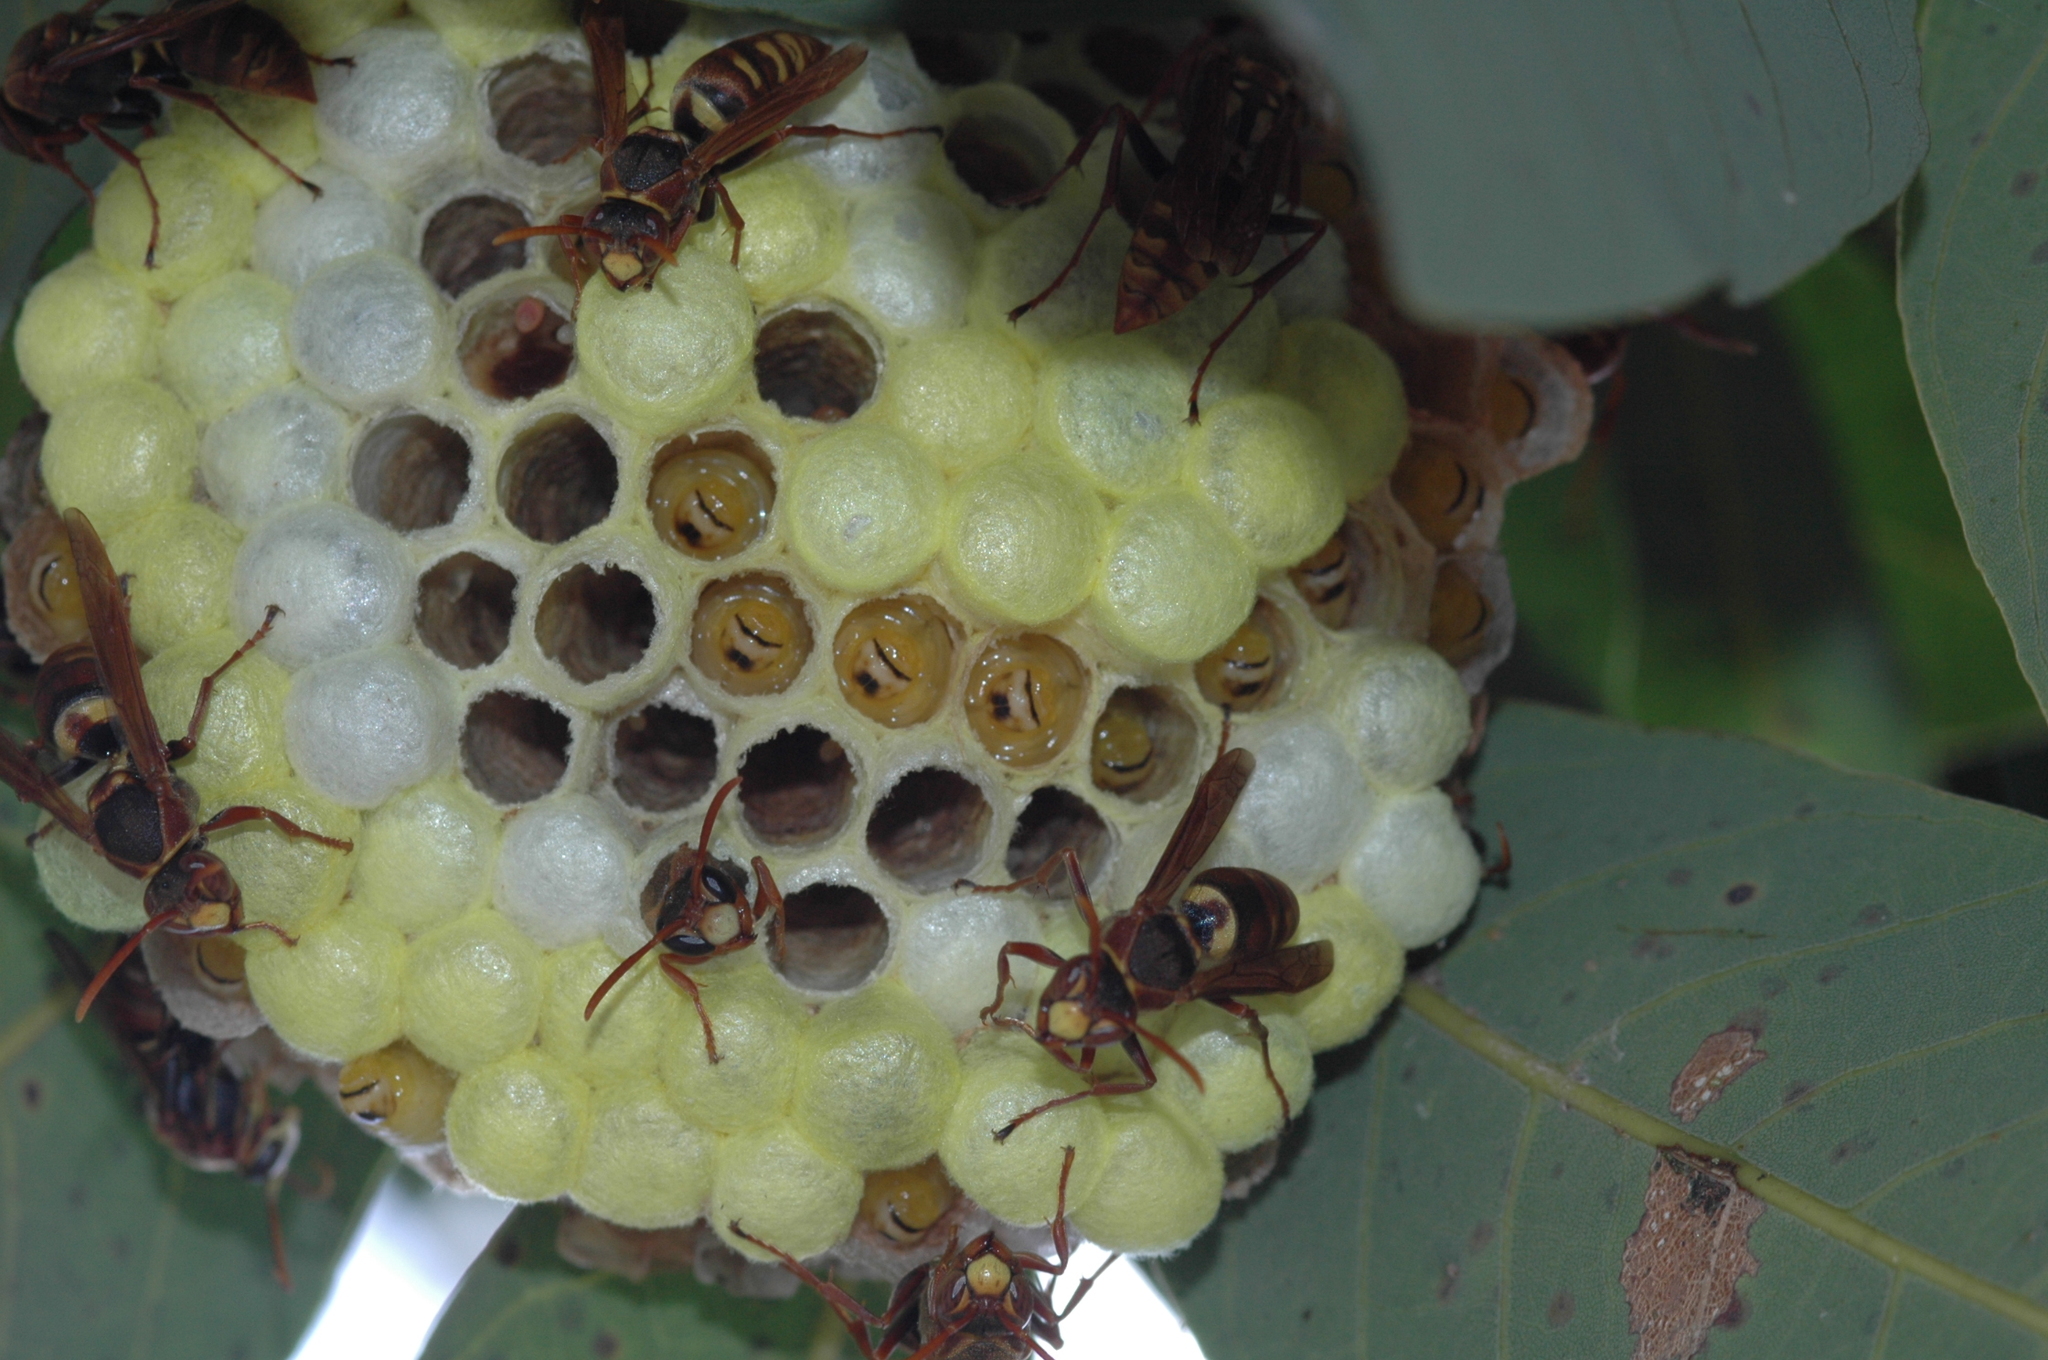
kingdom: Animalia
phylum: Arthropoda
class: Insecta
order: Hymenoptera
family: Eumenidae
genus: Polistes
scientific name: Polistes takasagonus
